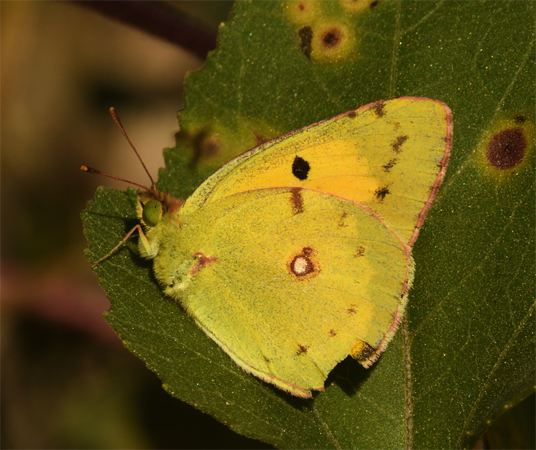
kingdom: Animalia
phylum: Arthropoda
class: Insecta
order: Lepidoptera
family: Pieridae
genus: Colias
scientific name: Colias croceus
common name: Clouded yellow
